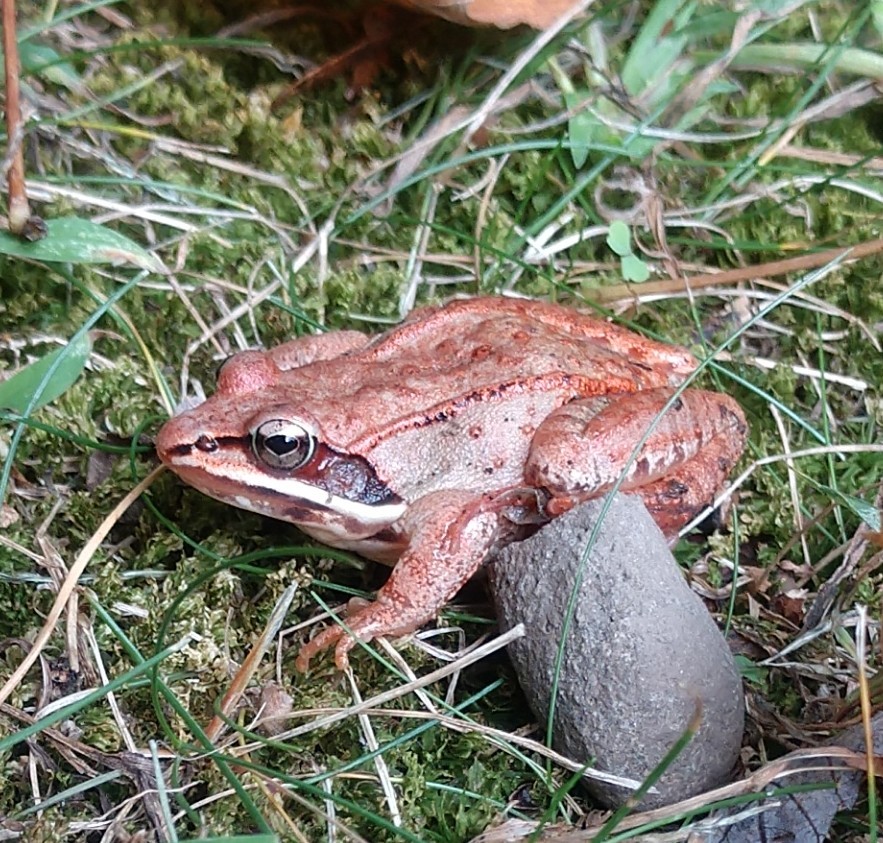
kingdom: Animalia
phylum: Chordata
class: Amphibia
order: Anura
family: Ranidae
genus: Lithobates
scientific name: Lithobates sylvaticus
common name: Wood frog
